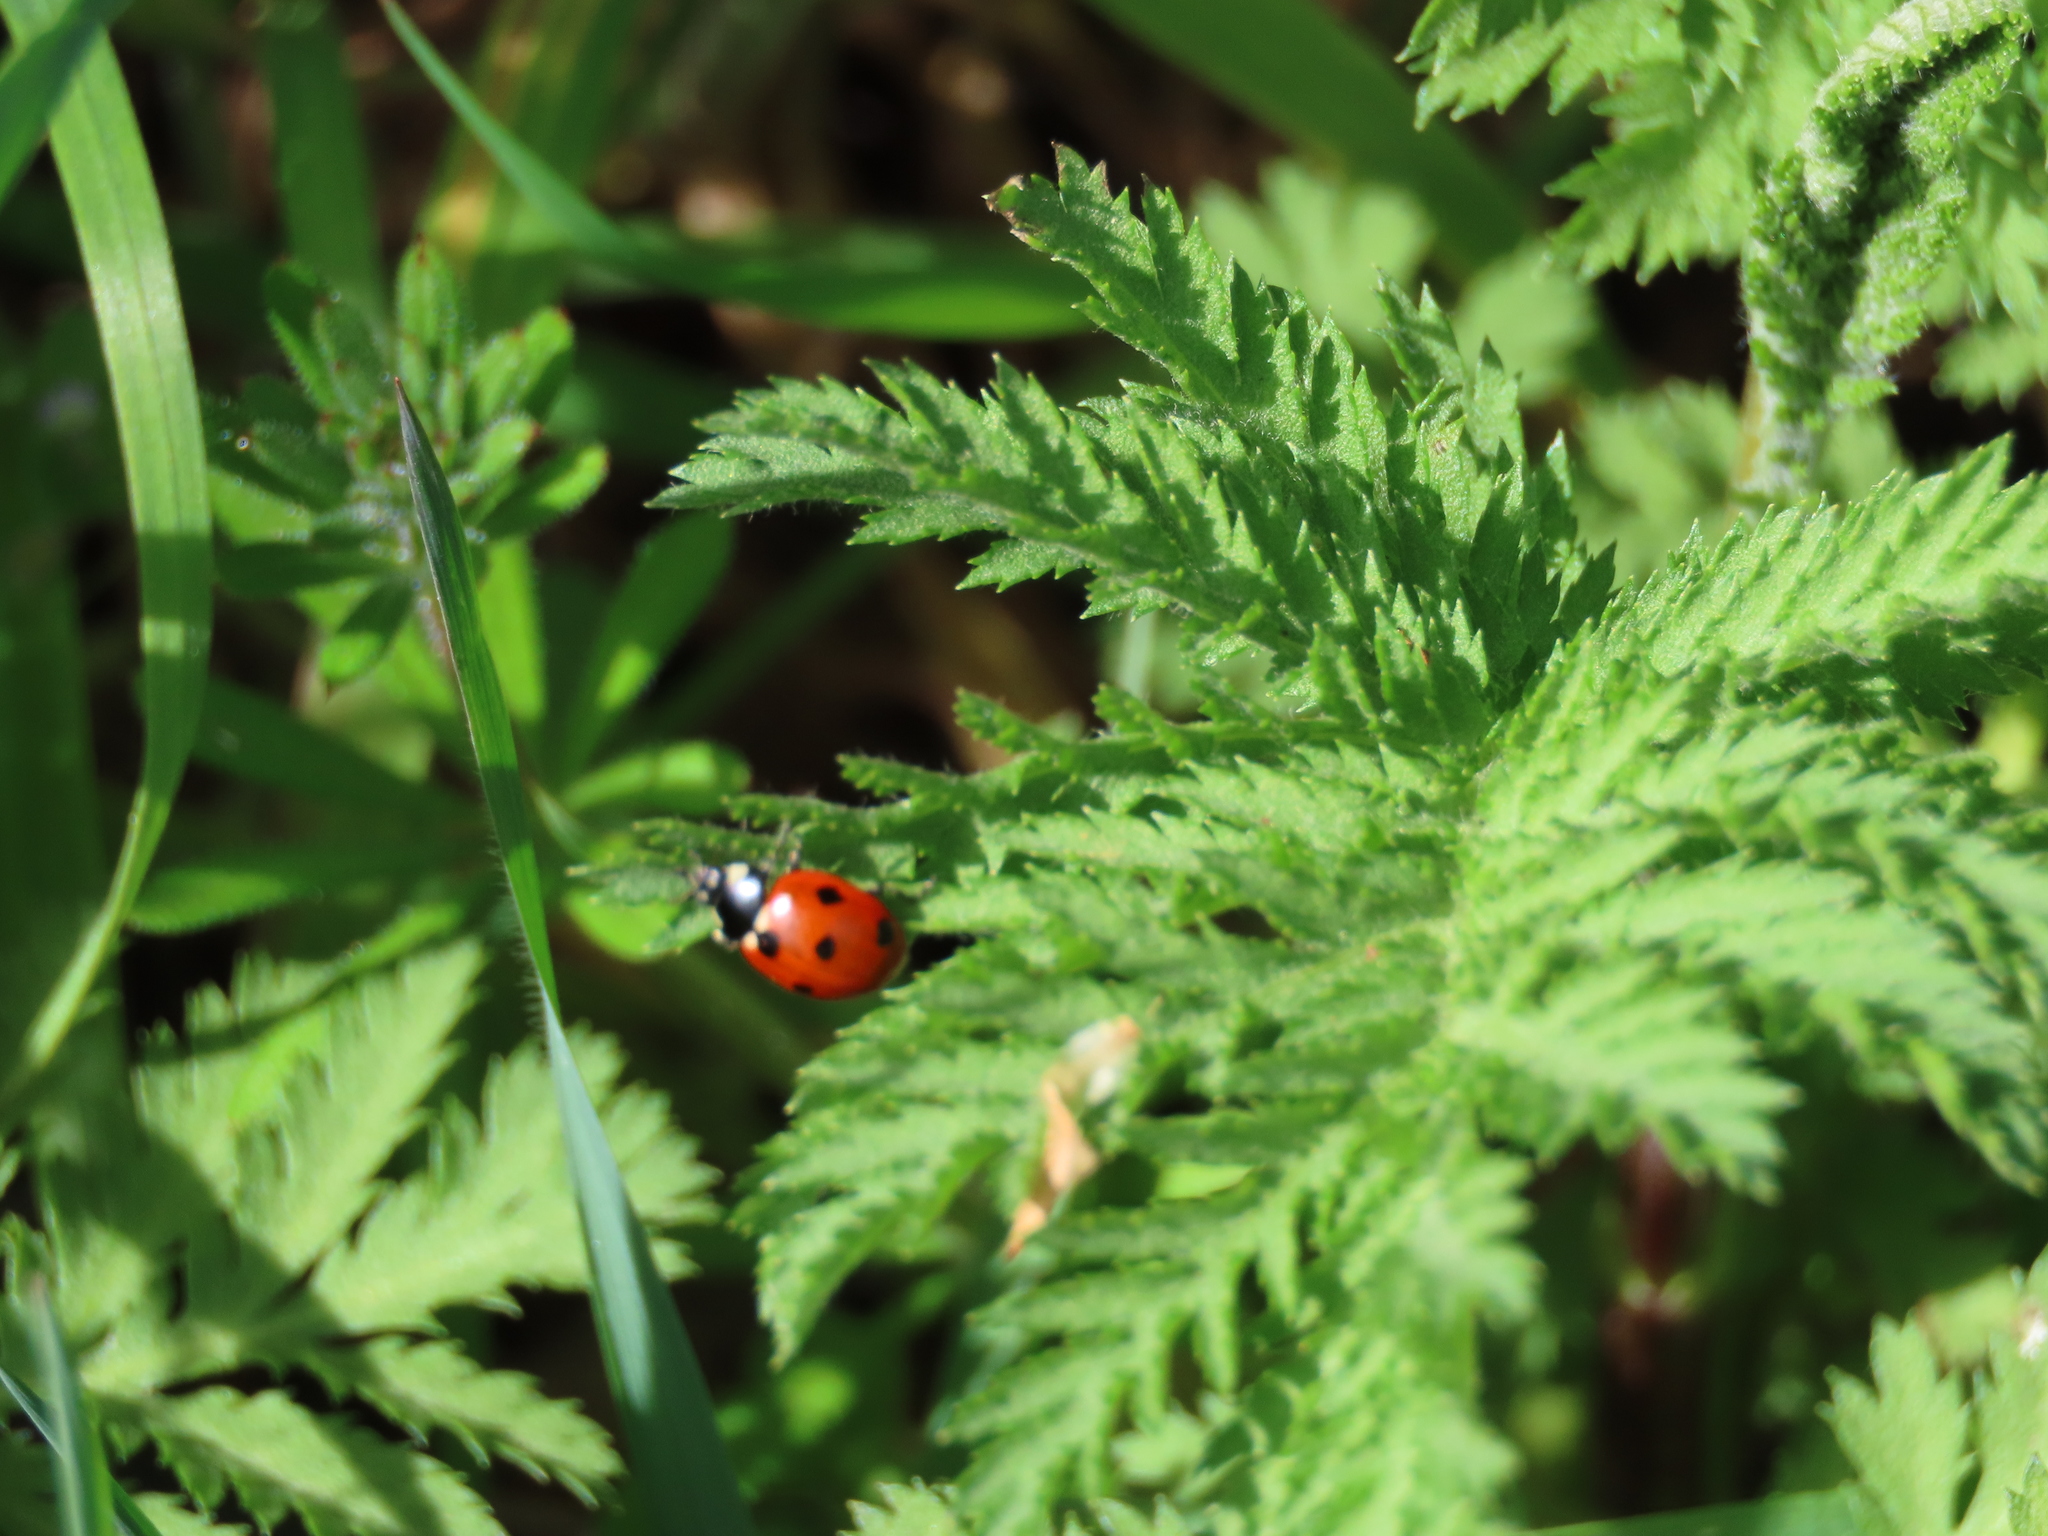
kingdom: Animalia
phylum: Arthropoda
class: Insecta
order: Coleoptera
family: Coccinellidae
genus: Coccinella
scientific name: Coccinella septempunctata
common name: Sevenspotted lady beetle
